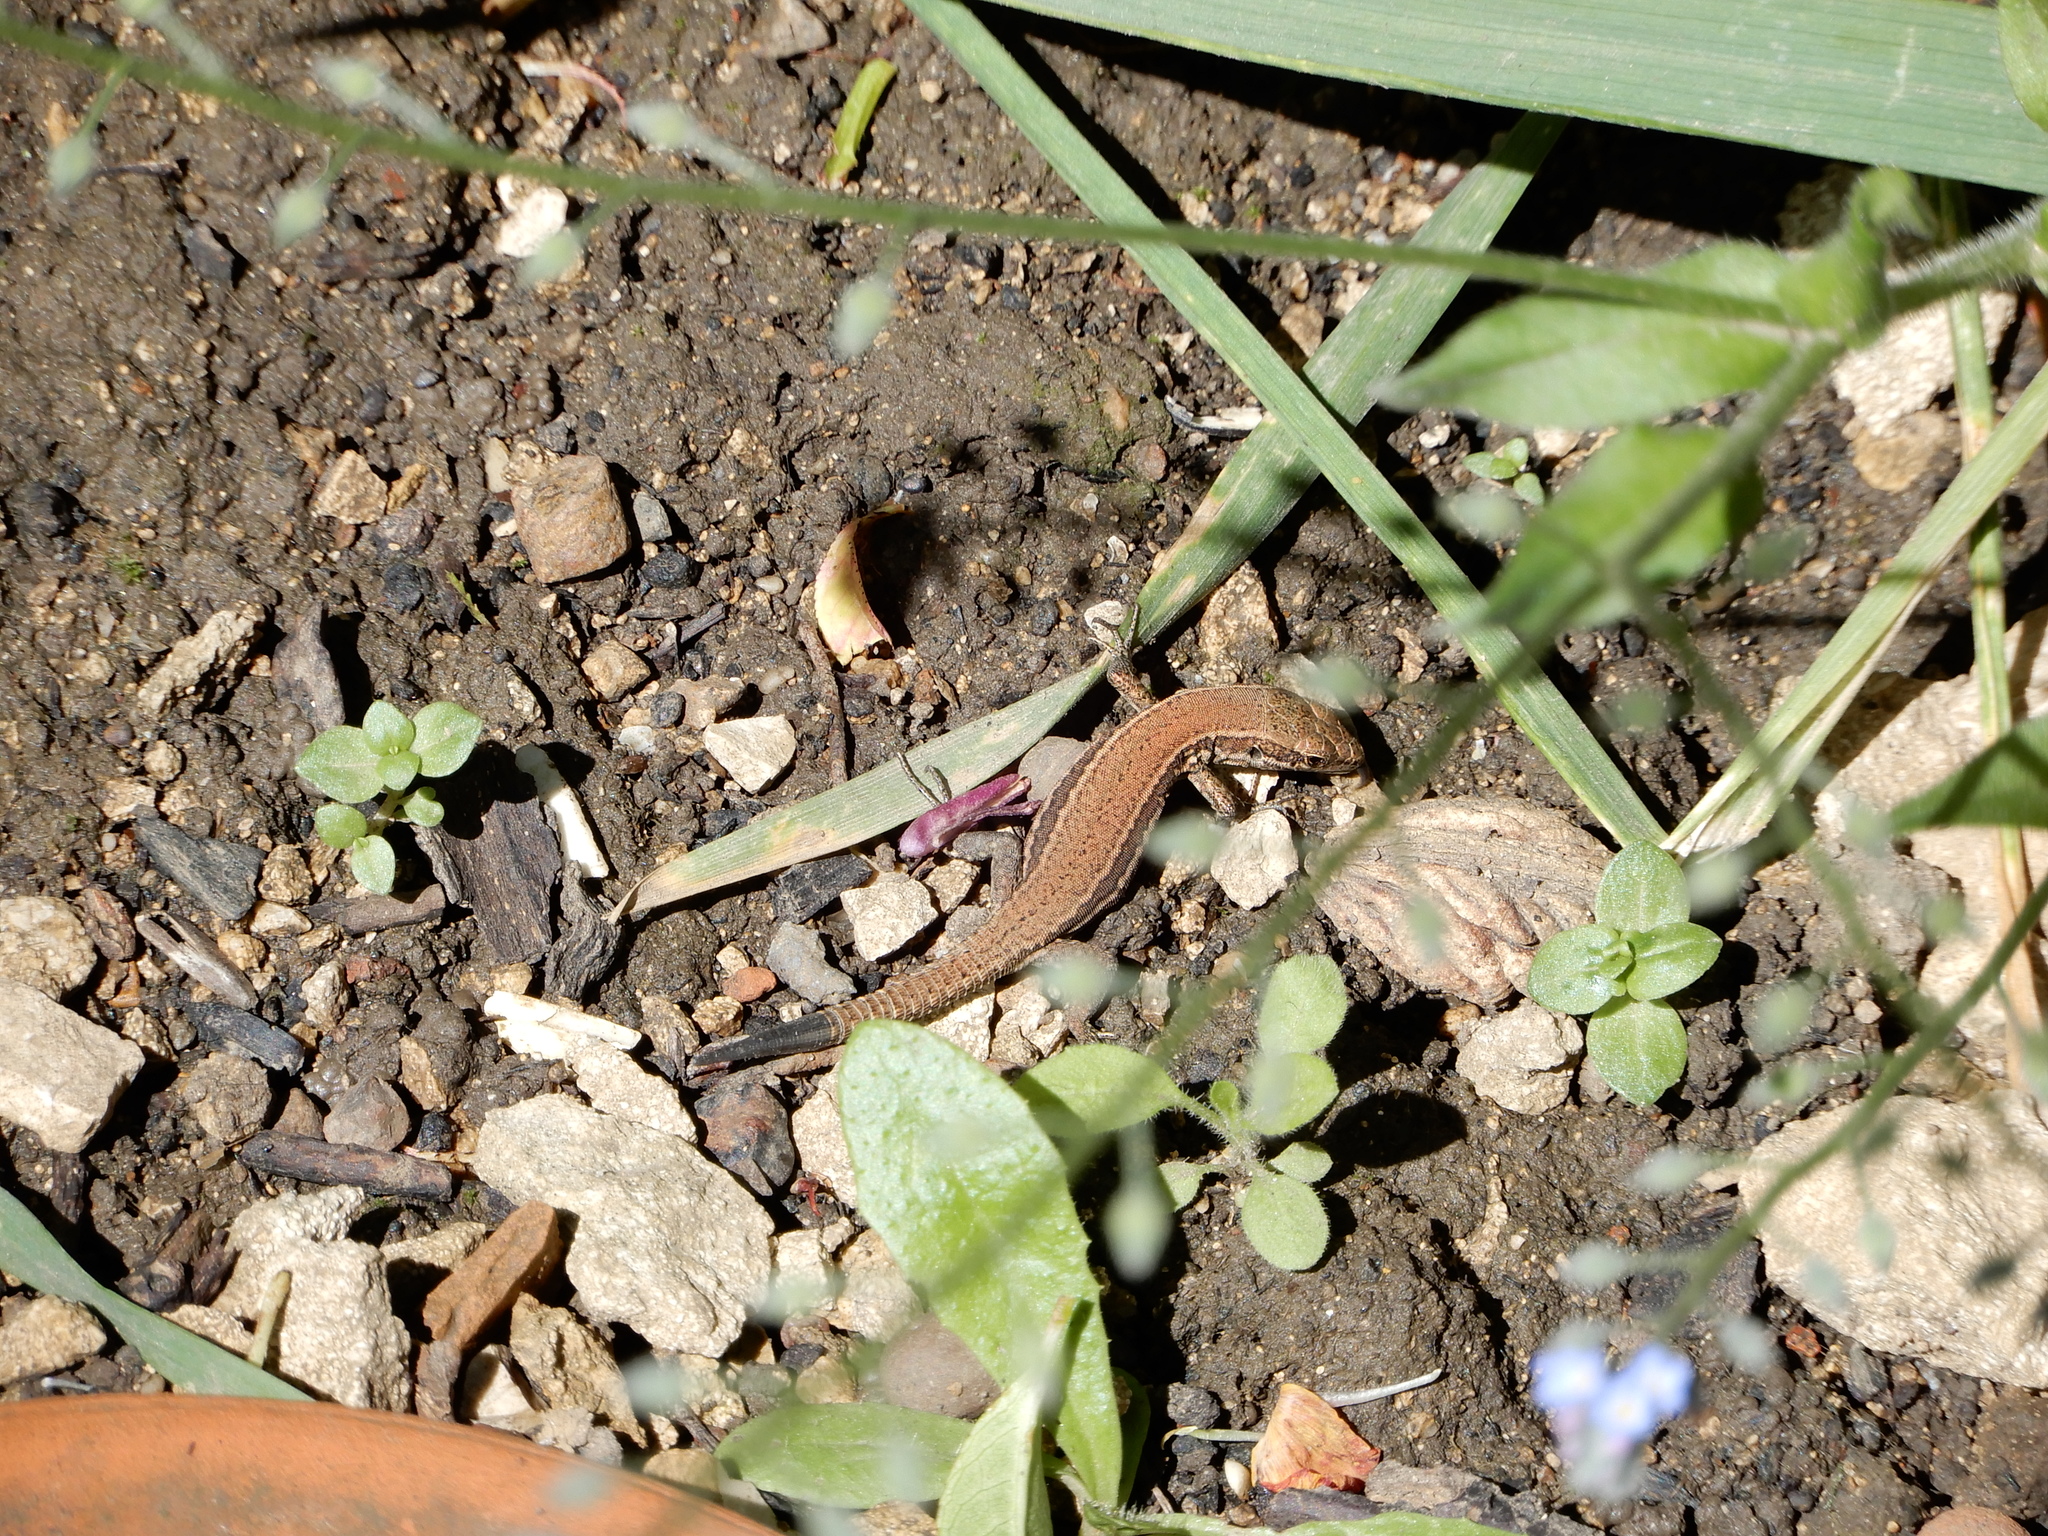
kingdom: Animalia
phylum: Chordata
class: Squamata
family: Lacertidae
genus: Podarcis
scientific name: Podarcis muralis
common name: Common wall lizard
